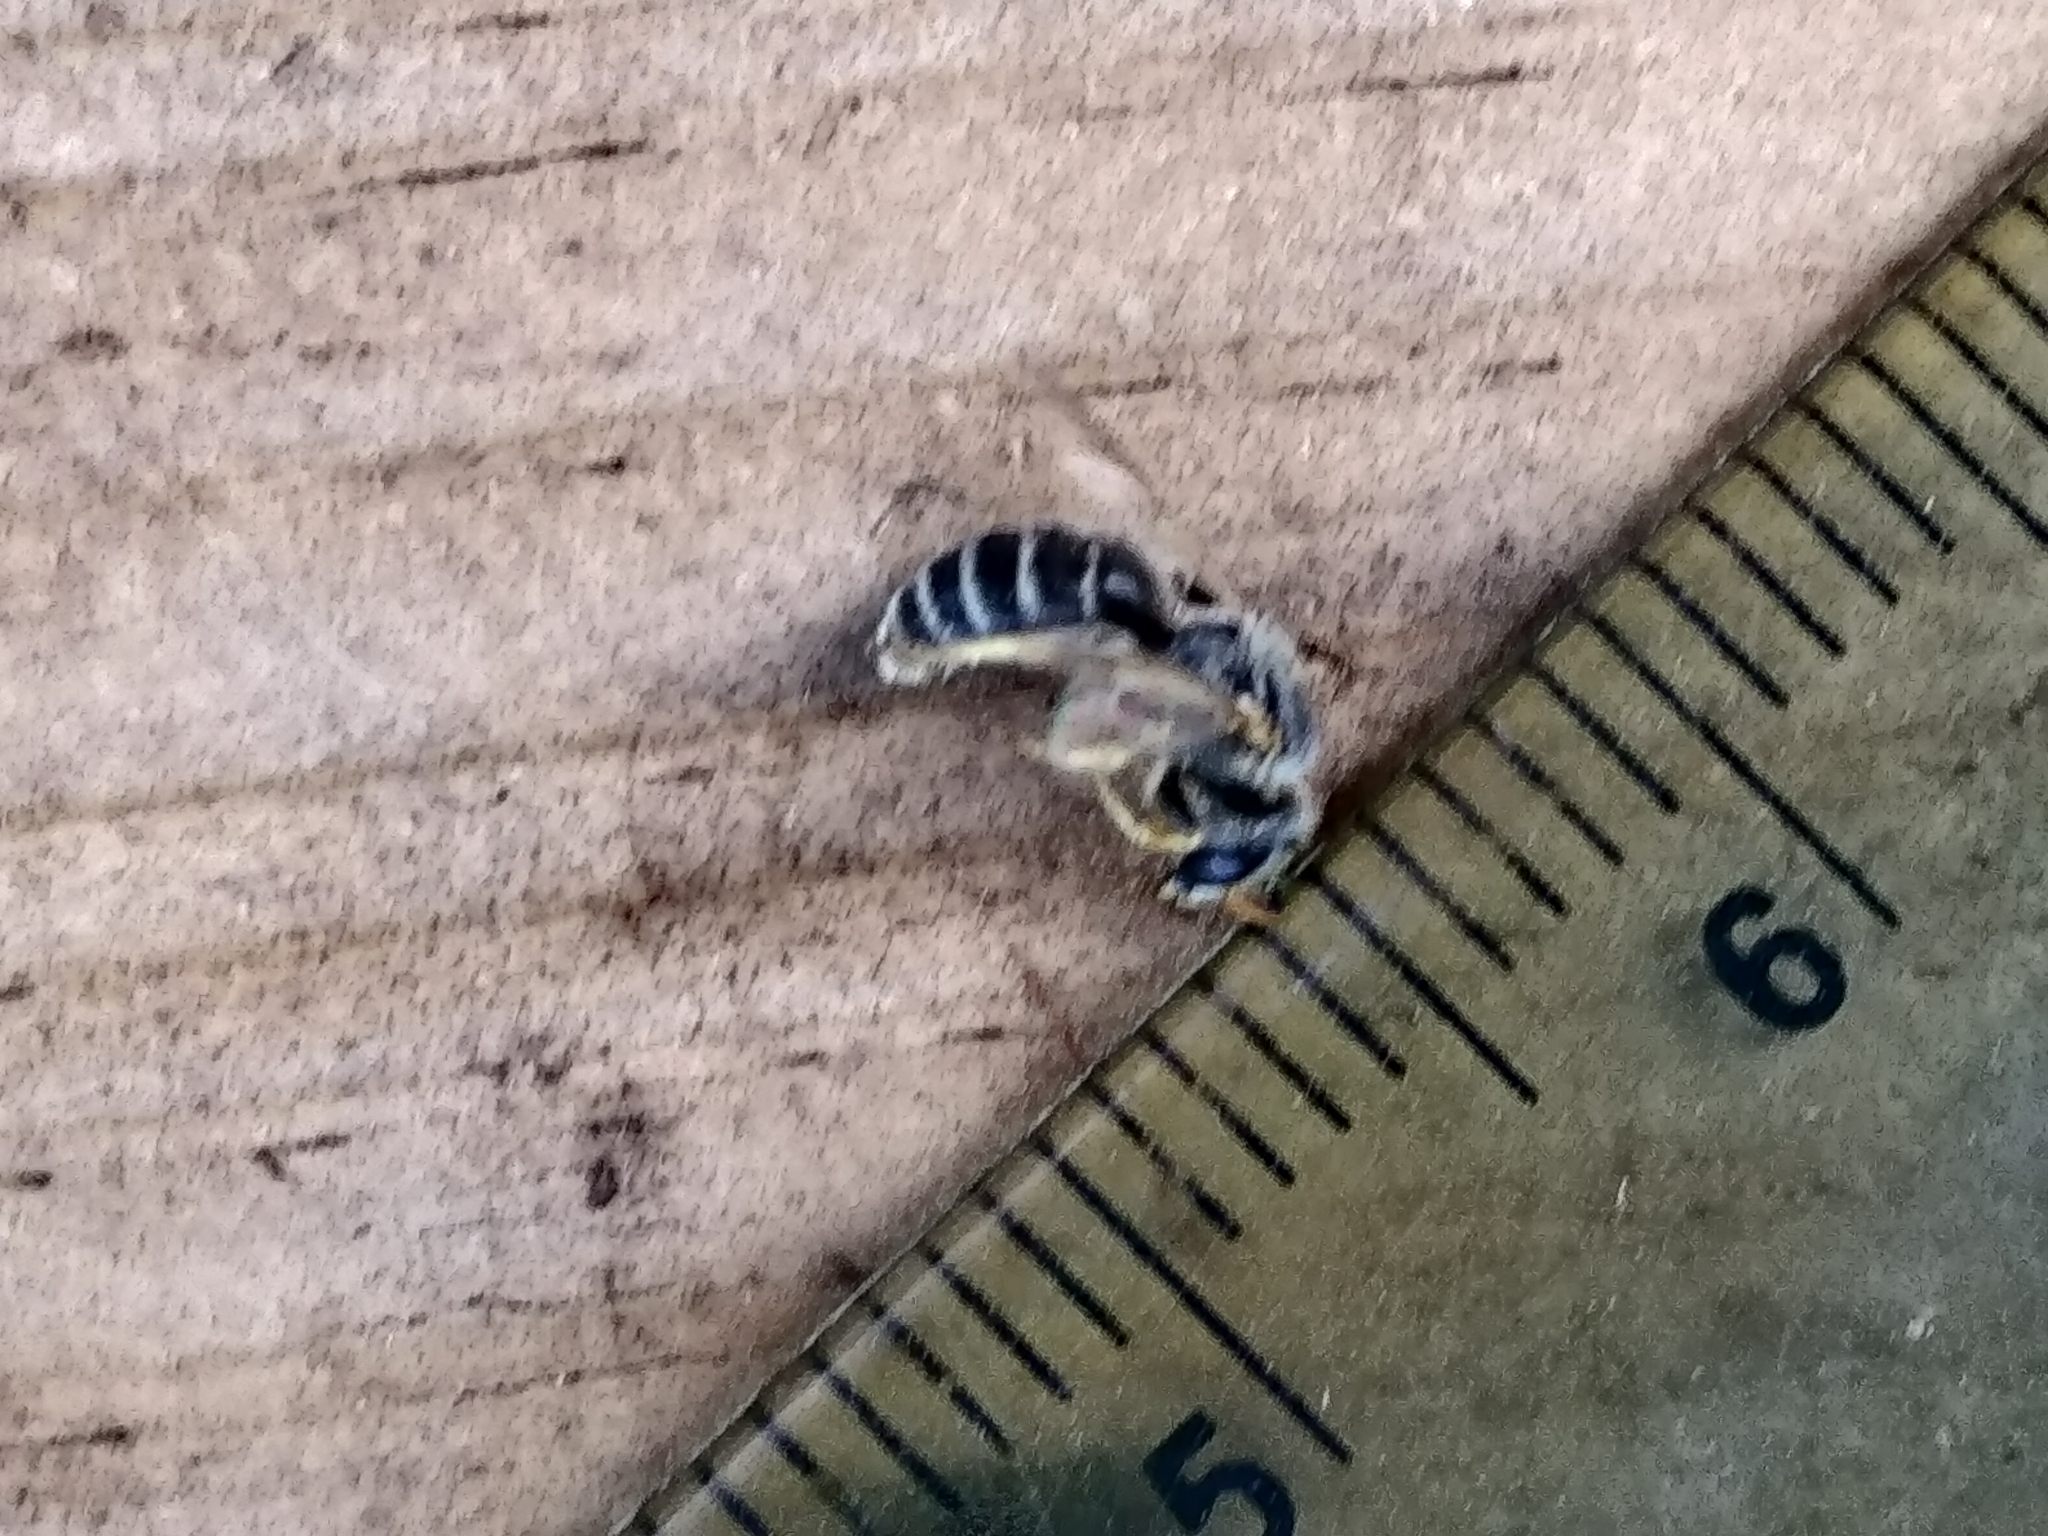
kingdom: Animalia
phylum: Arthropoda
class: Insecta
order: Hymenoptera
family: Halictidae
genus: Halictus
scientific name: Halictus ligatus
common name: Ligated furrow bee
